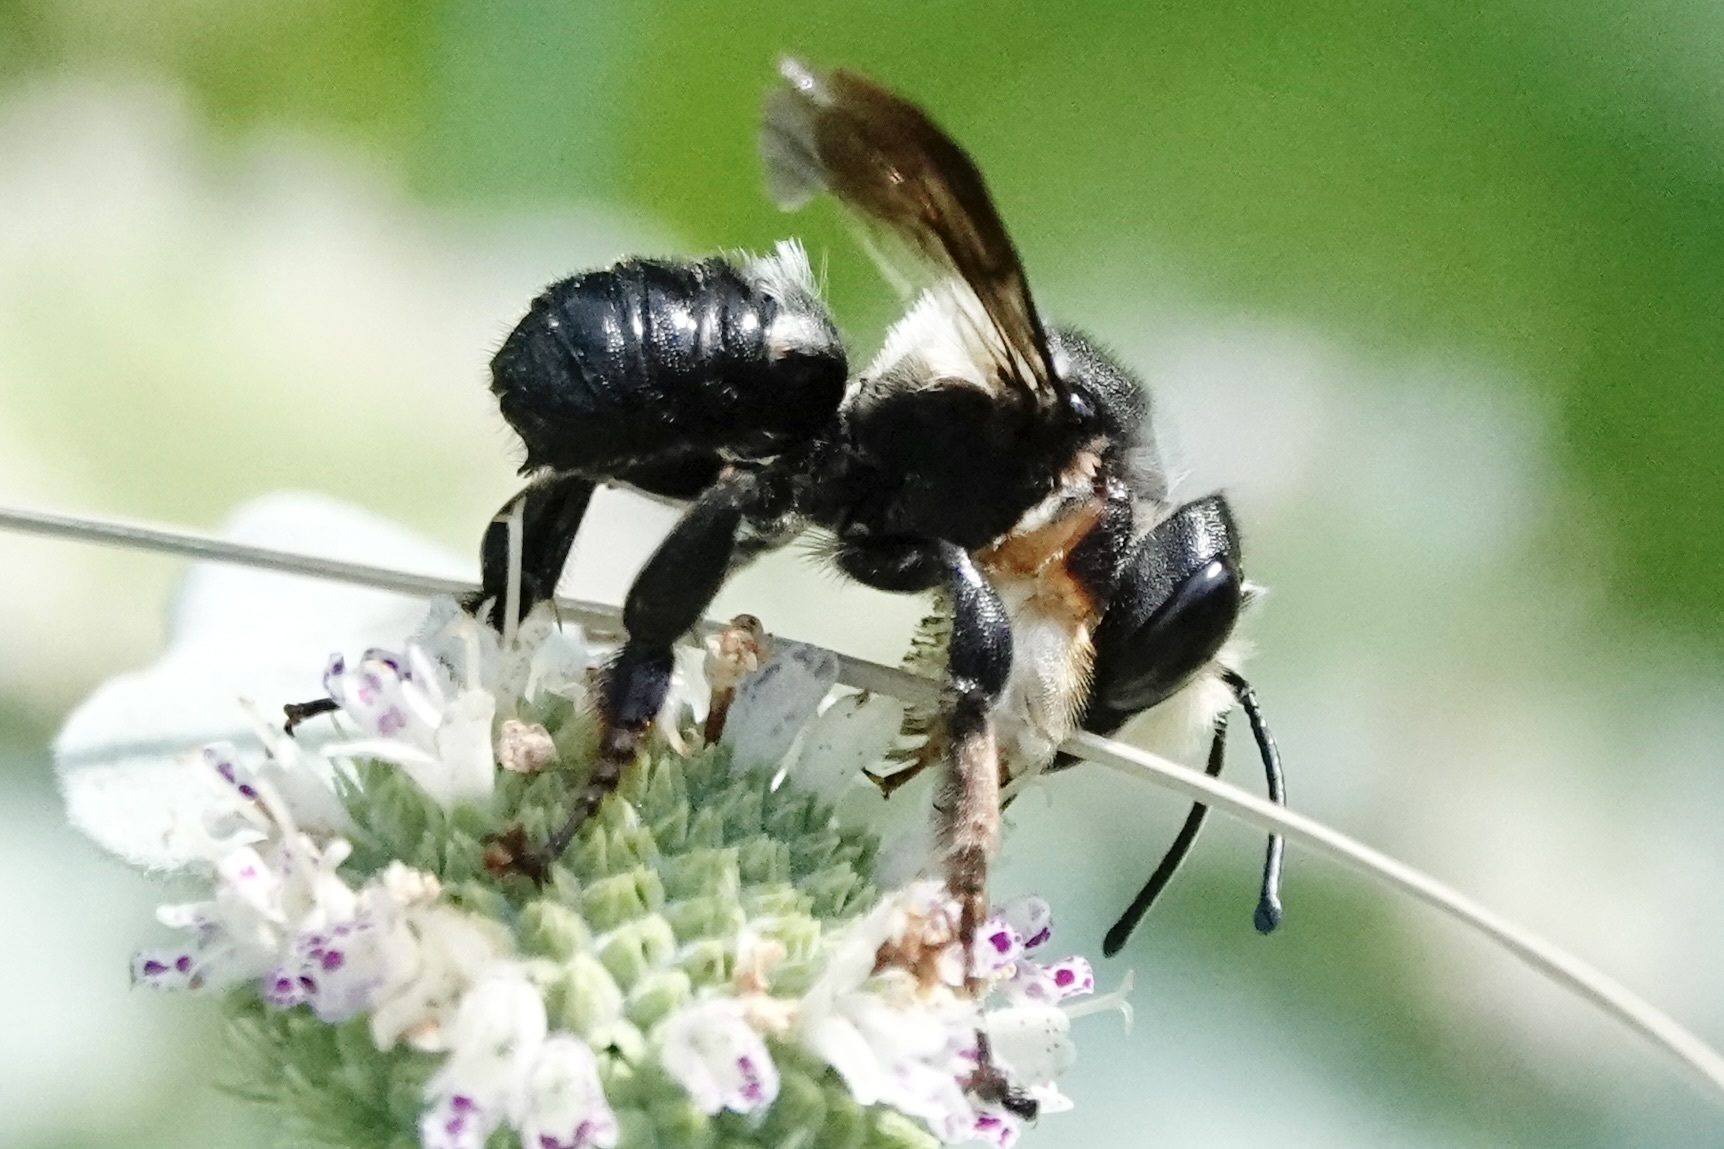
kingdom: Animalia
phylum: Arthropoda
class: Insecta
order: Hymenoptera
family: Megachilidae
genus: Megachile
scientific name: Megachile xylocopoides
